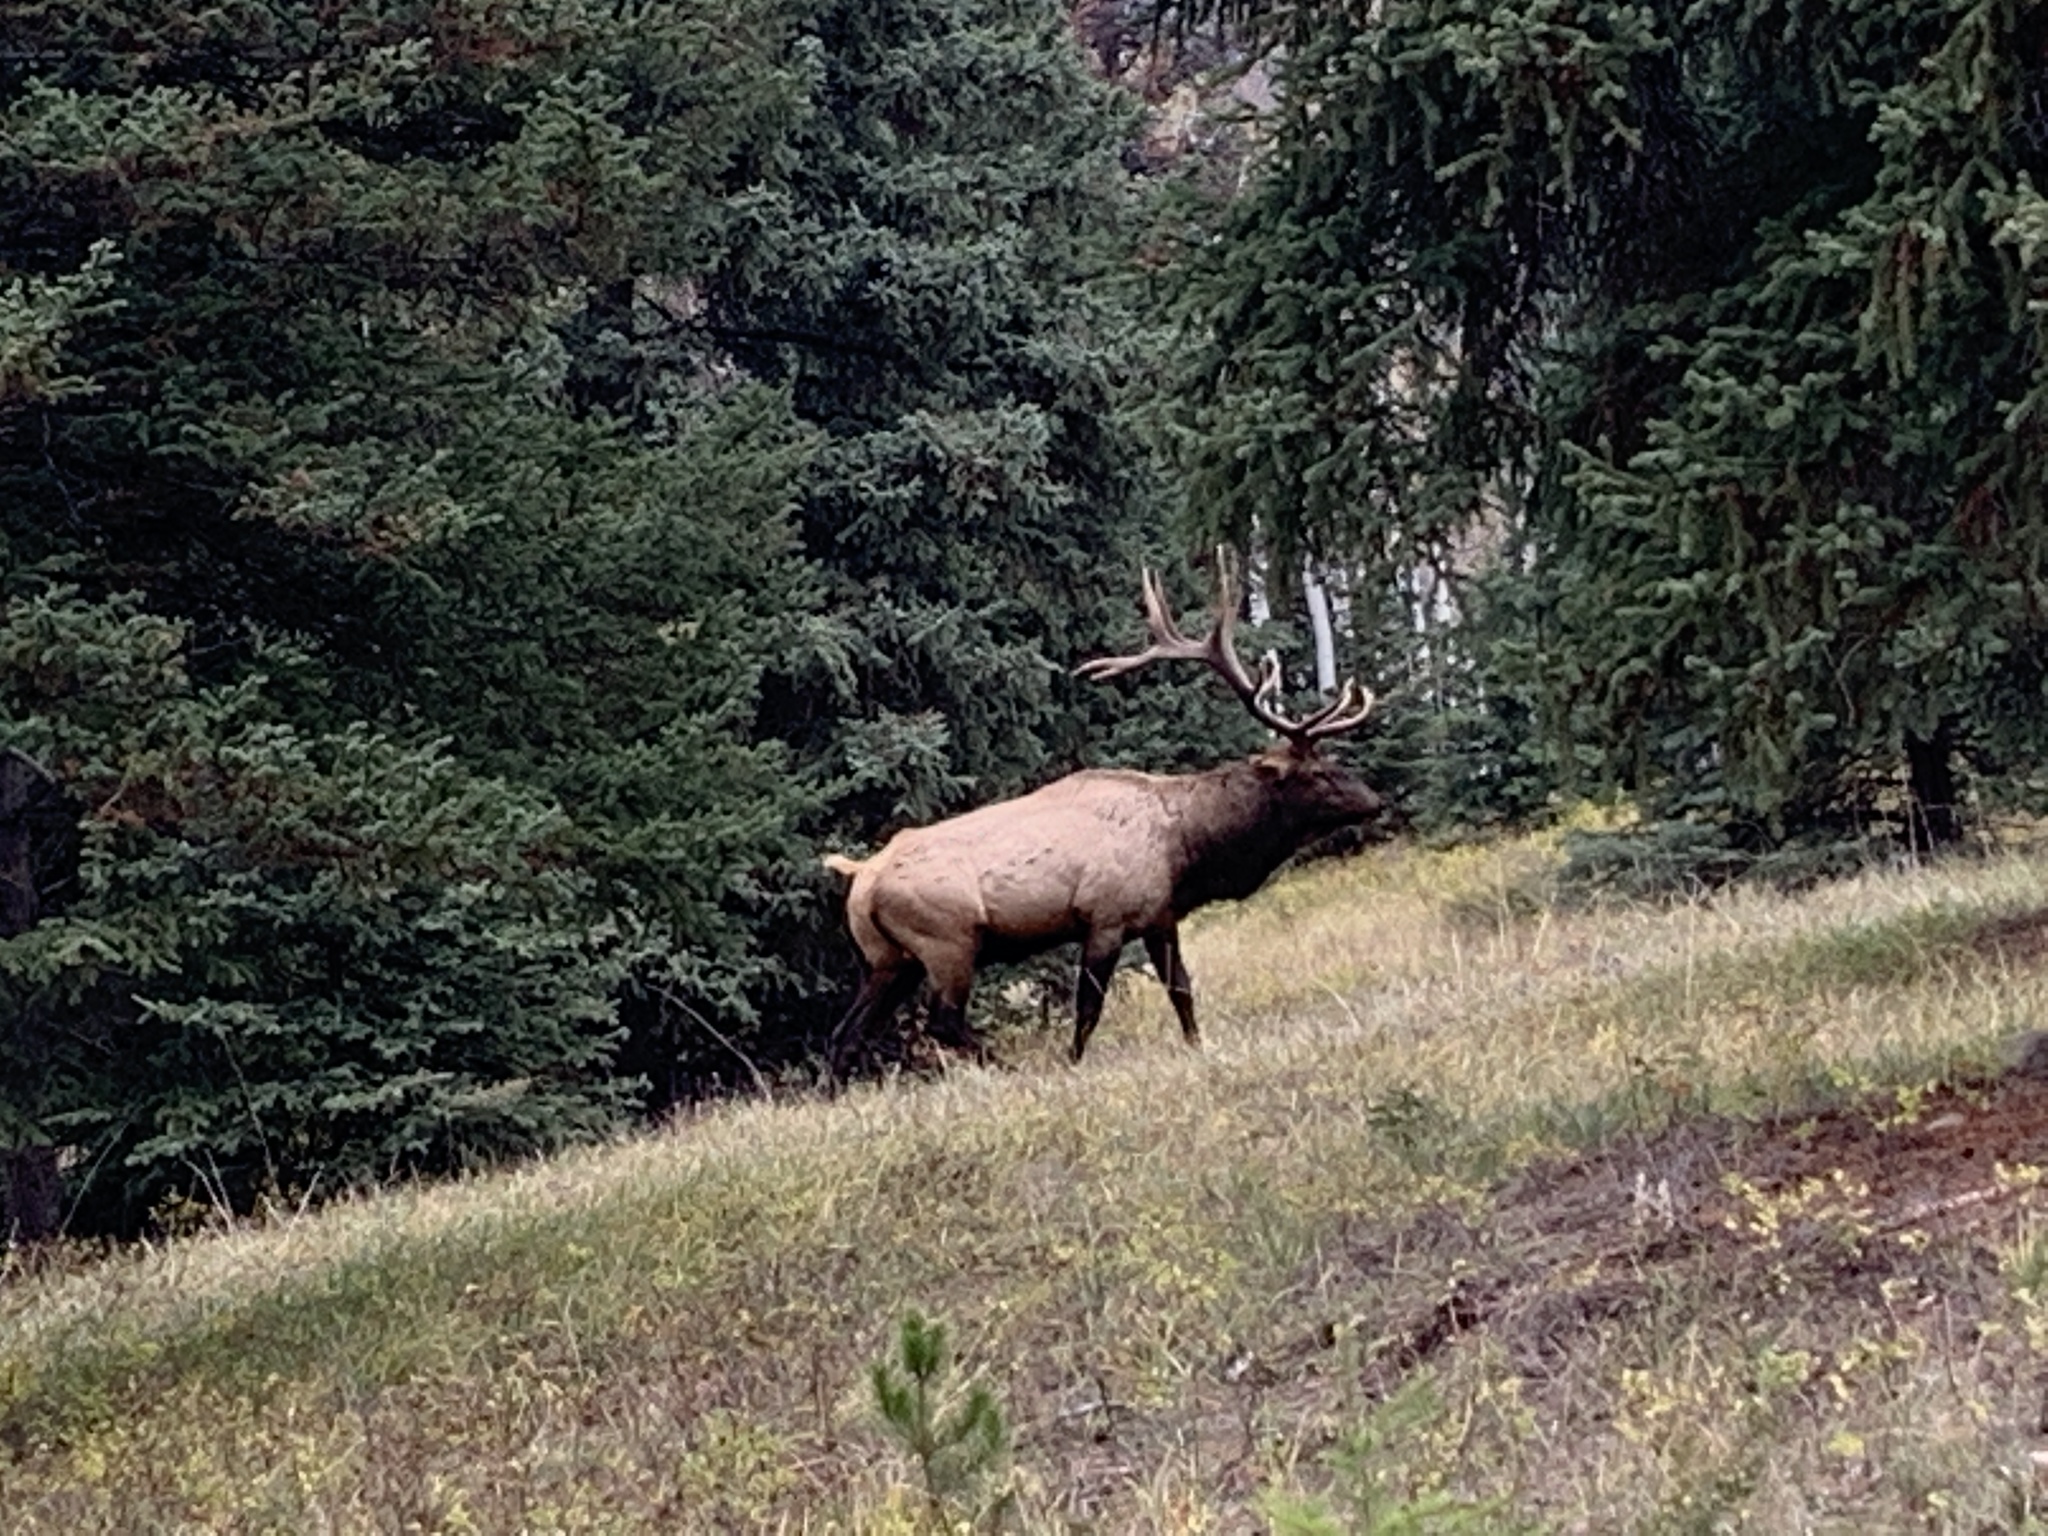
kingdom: Animalia
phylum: Chordata
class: Mammalia
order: Artiodactyla
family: Cervidae
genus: Cervus
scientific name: Cervus elaphus
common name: Red deer
